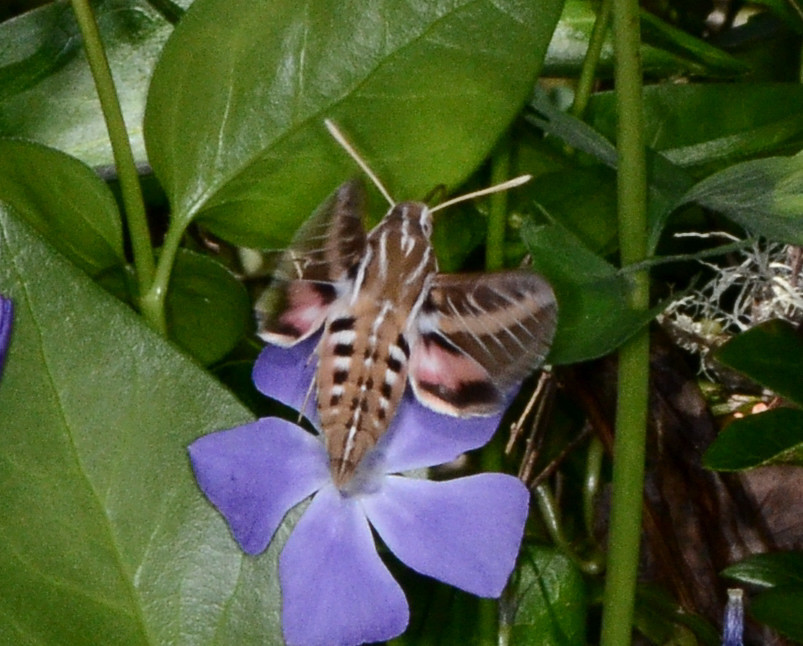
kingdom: Animalia
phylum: Arthropoda
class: Insecta
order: Lepidoptera
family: Sphingidae
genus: Hyles
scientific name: Hyles lineata
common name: White-lined sphinx
